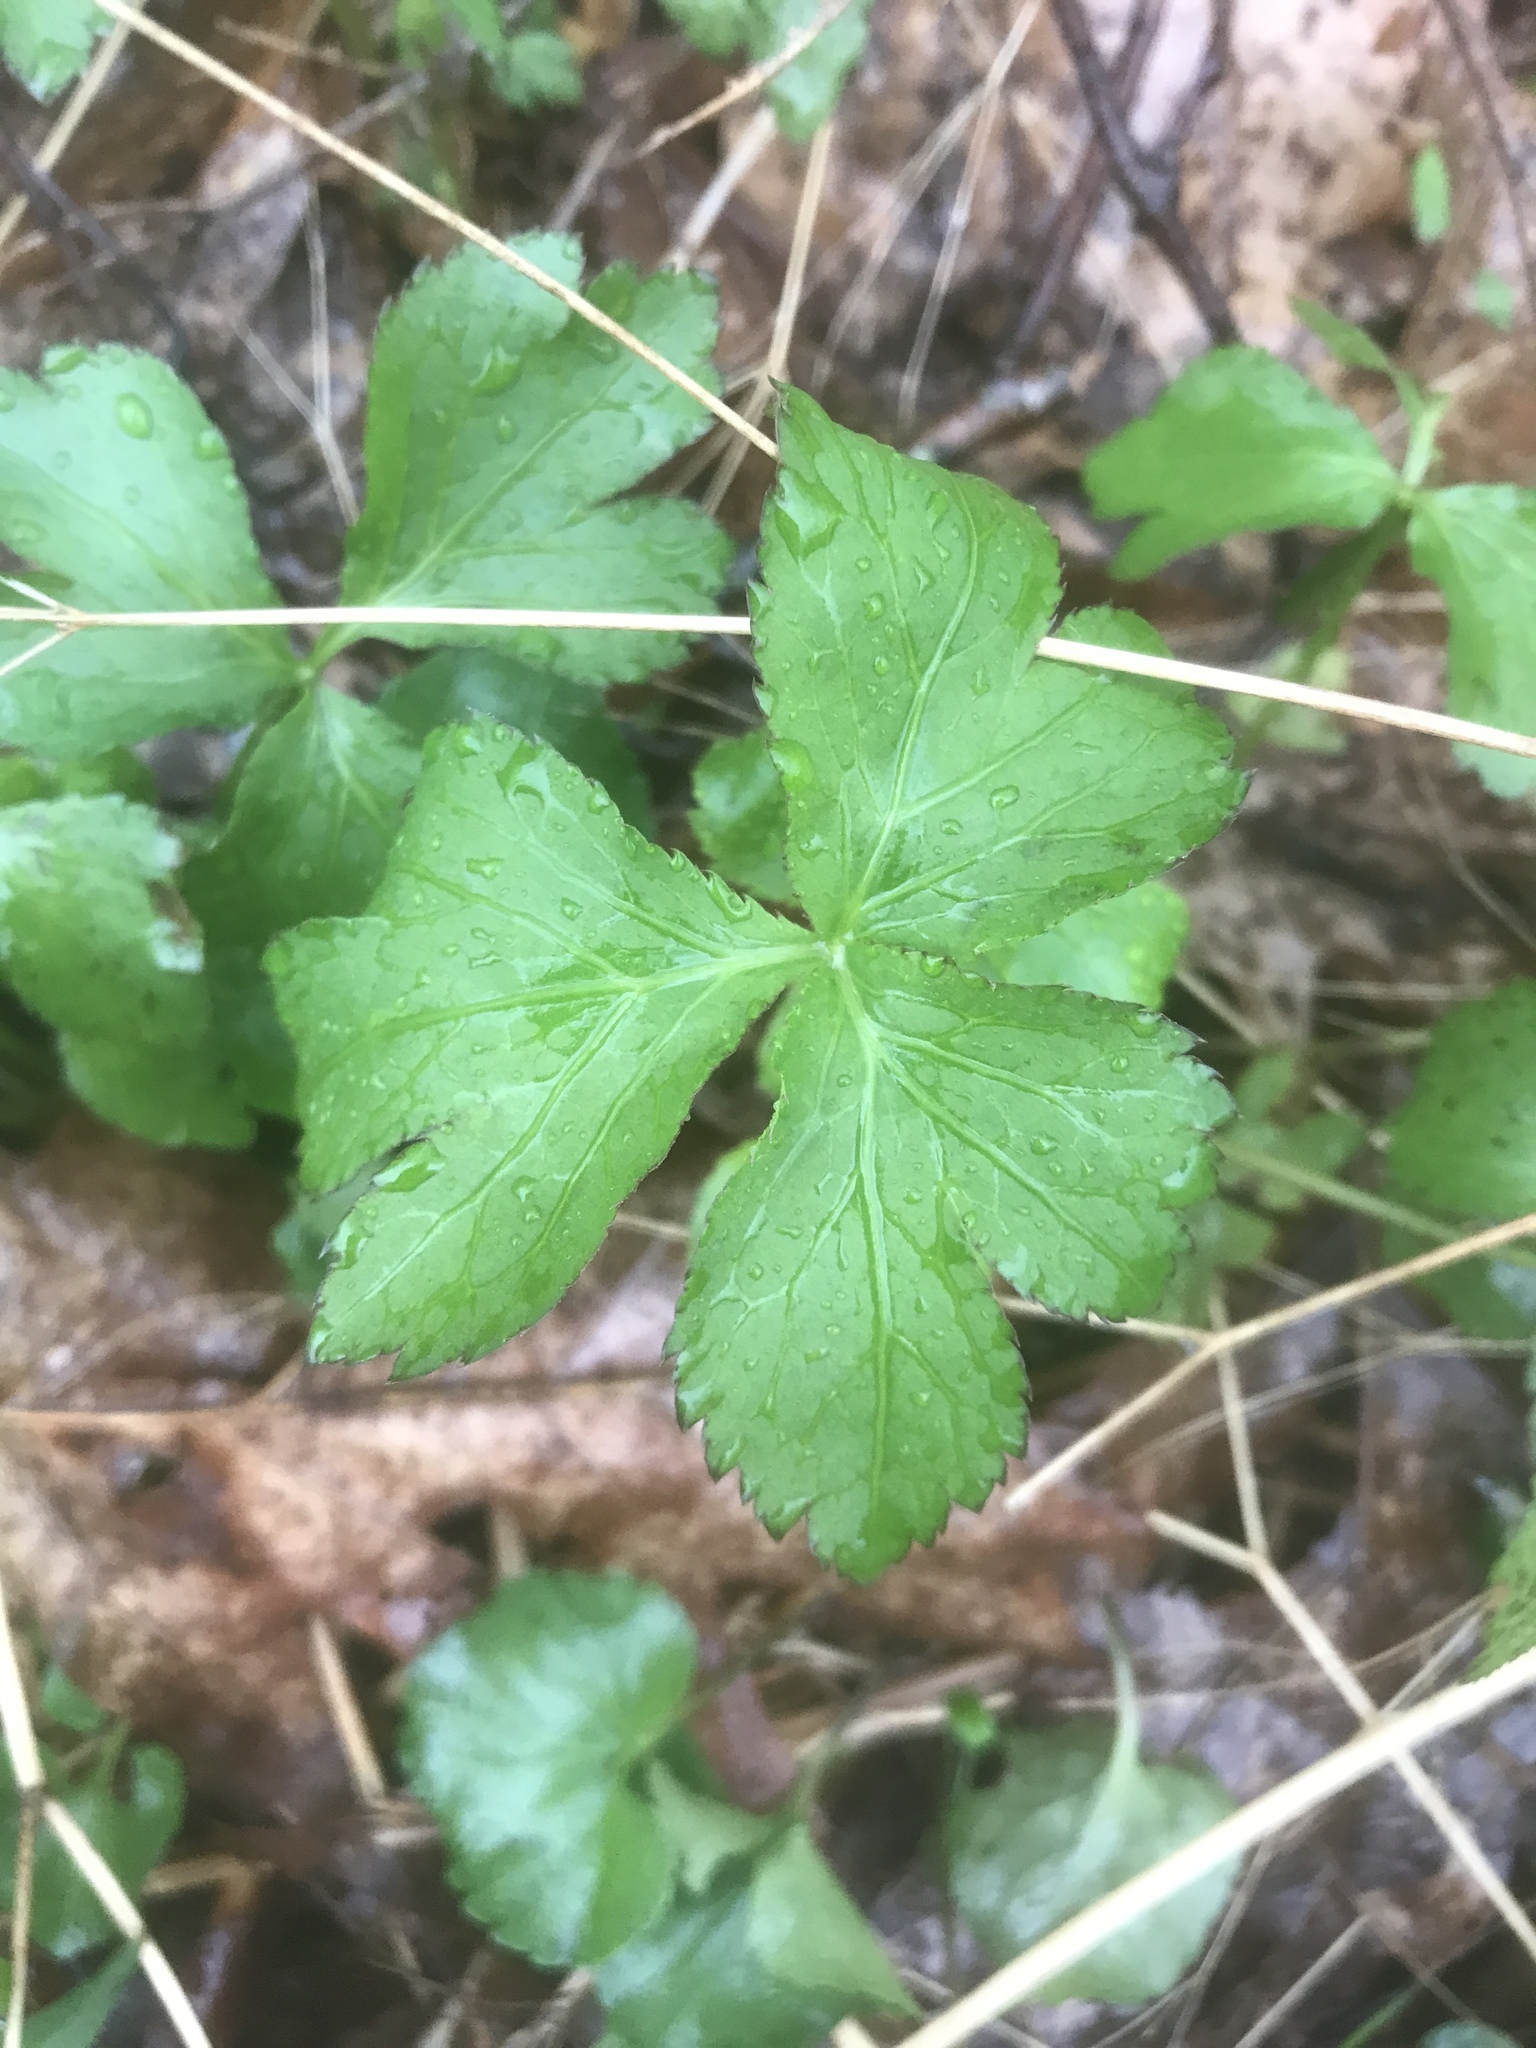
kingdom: Plantae
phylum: Tracheophyta
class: Magnoliopsida
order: Apiales
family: Apiaceae
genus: Cryptotaenia
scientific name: Cryptotaenia canadensis
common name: Honewort
